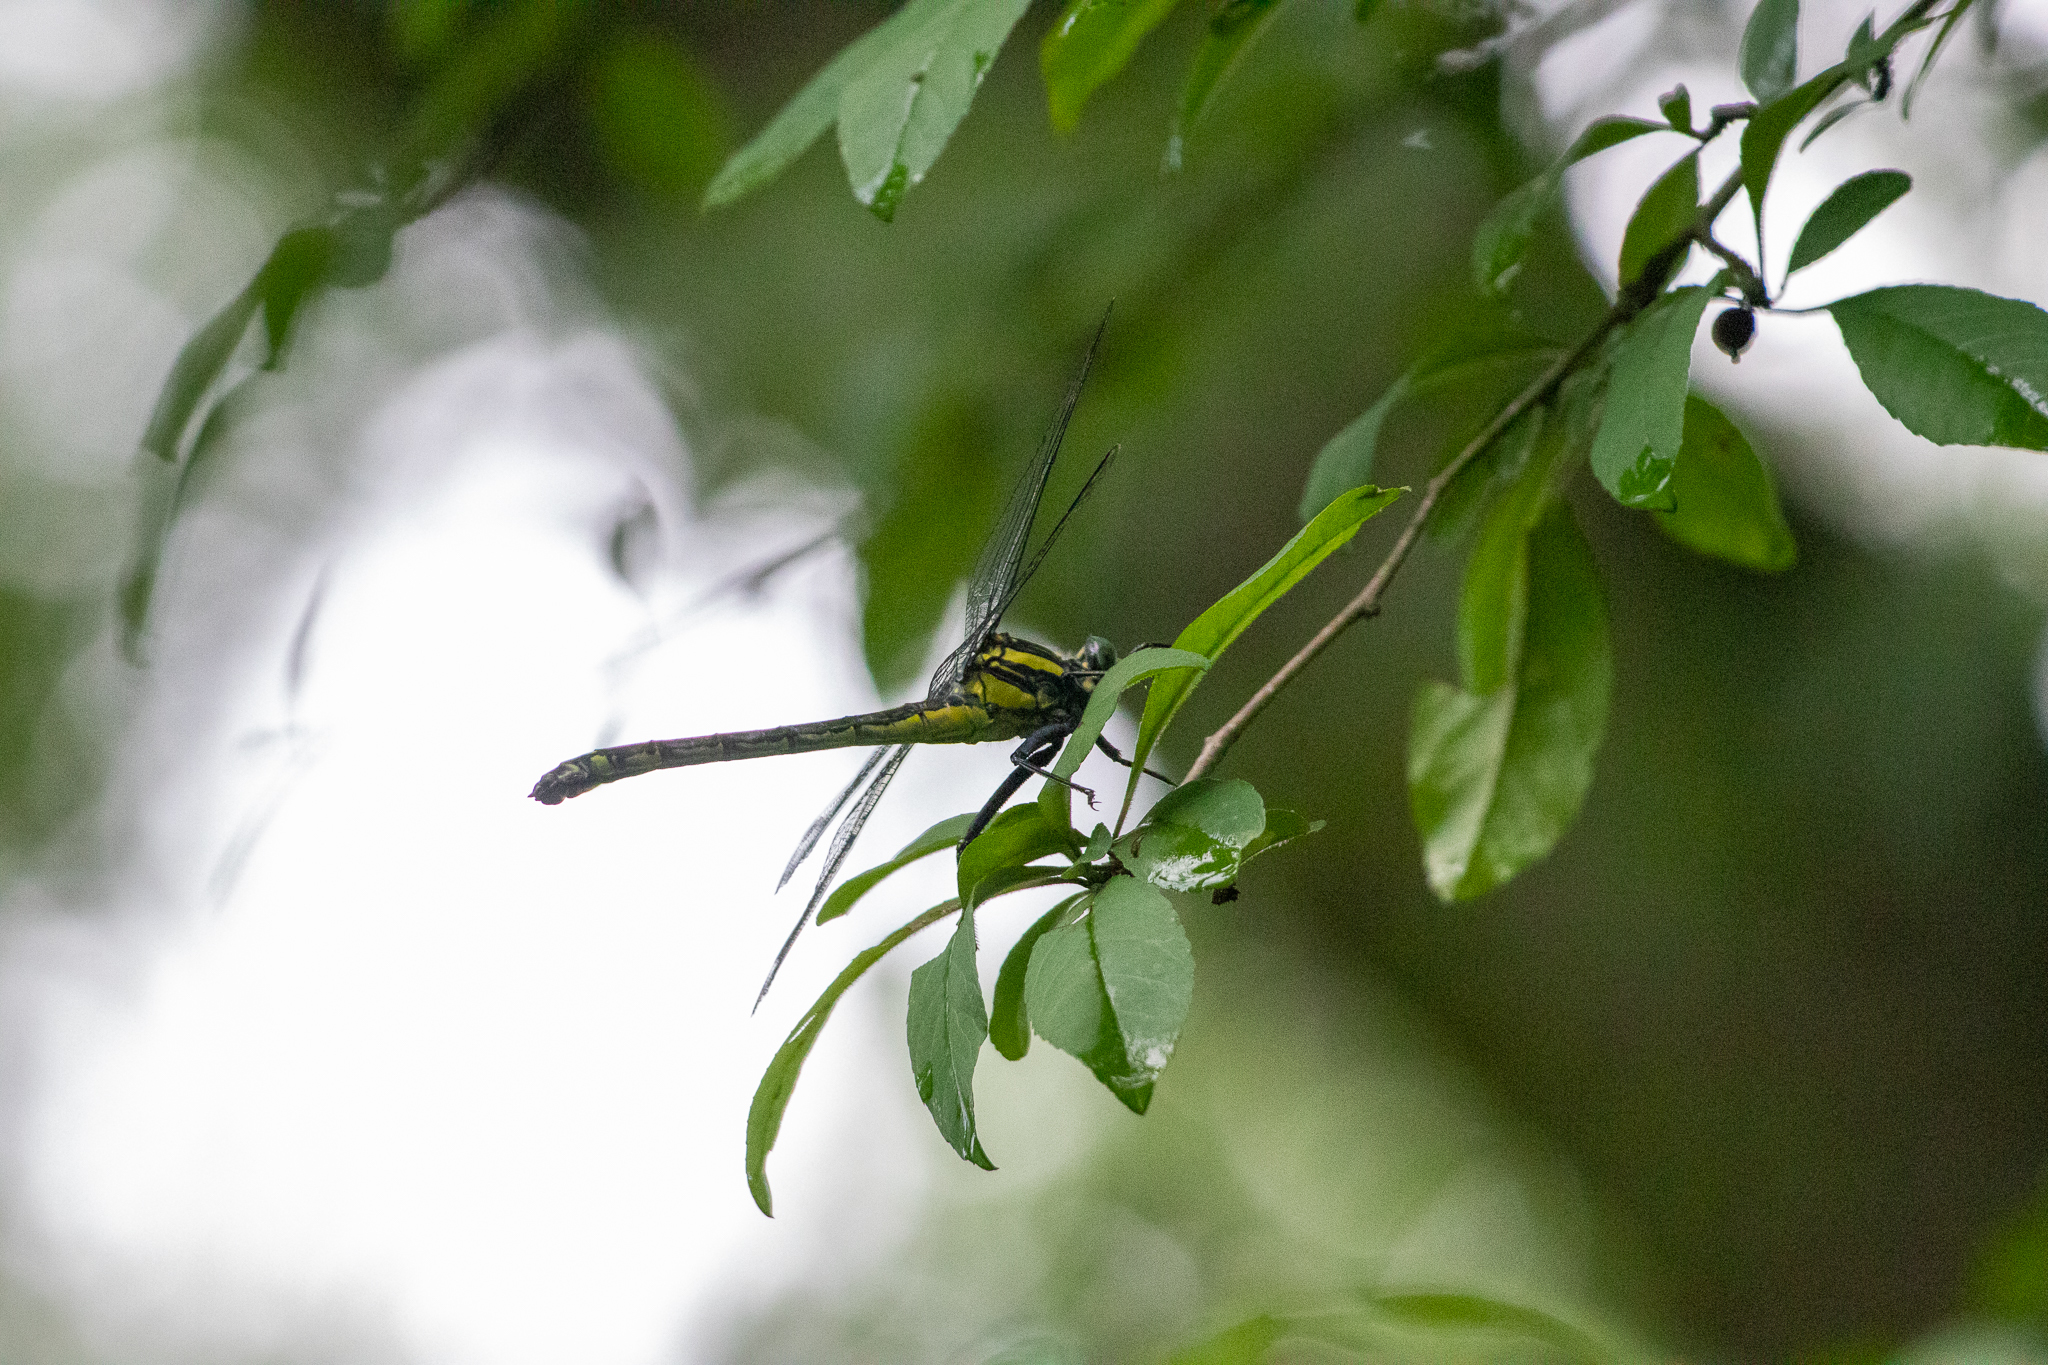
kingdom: Animalia
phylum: Arthropoda
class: Insecta
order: Odonata
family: Gomphidae
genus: Hagenius
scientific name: Hagenius brevistylus
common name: Dragonhunter
